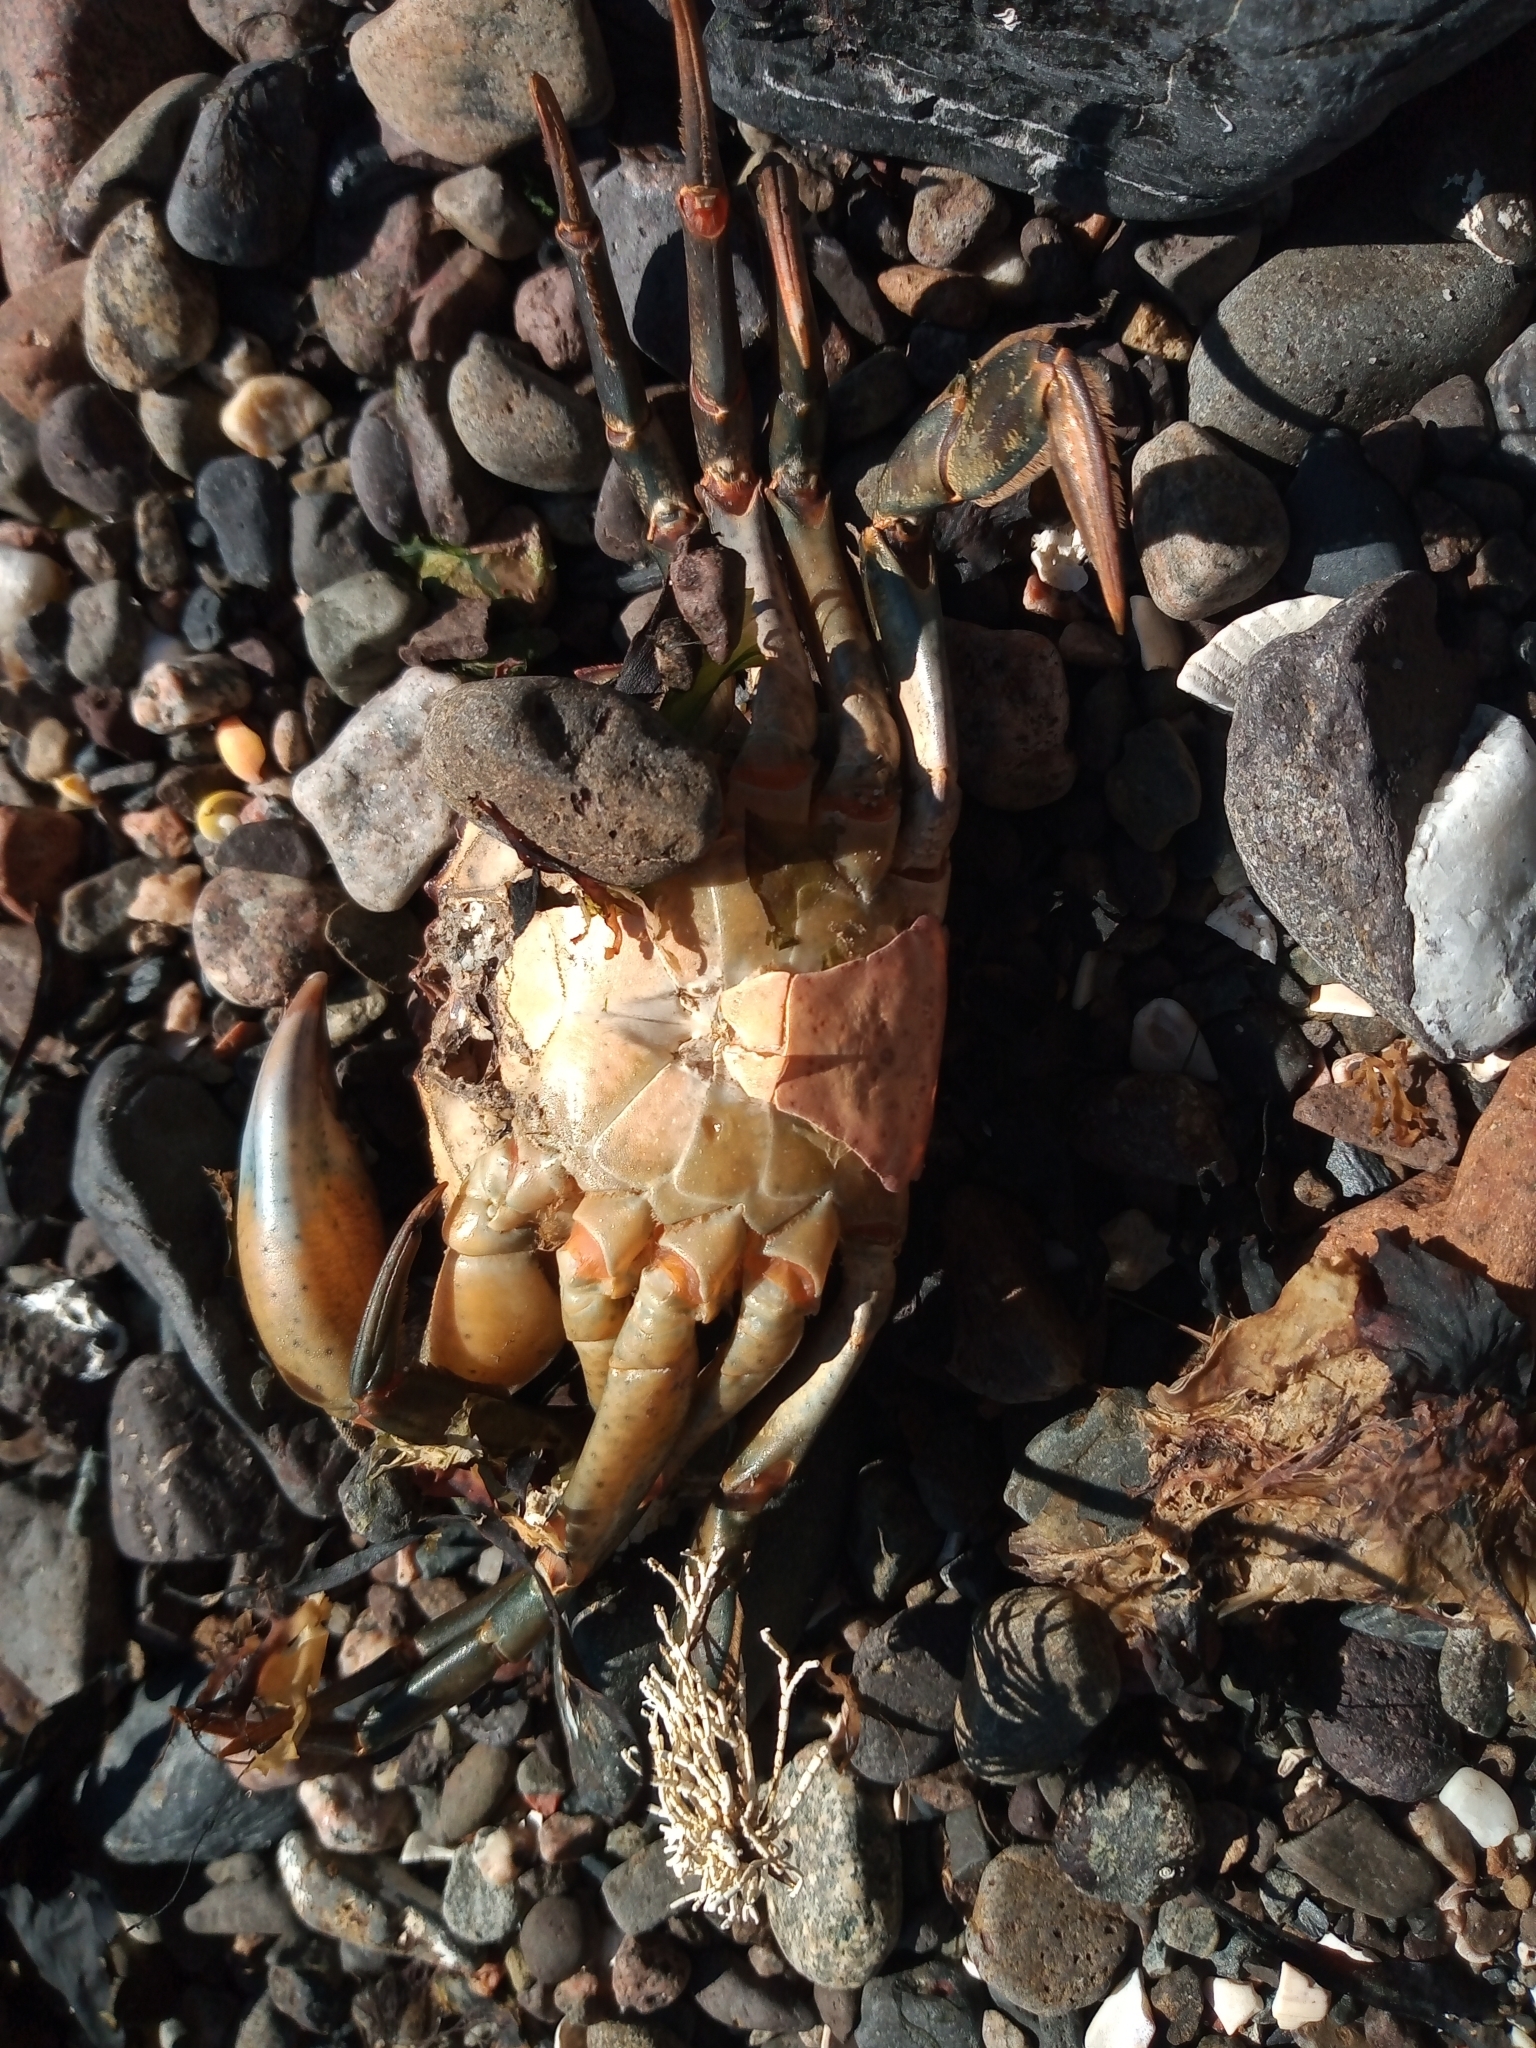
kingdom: Animalia
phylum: Arthropoda
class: Malacostraca
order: Decapoda
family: Carcinidae
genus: Carcinus
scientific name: Carcinus maenas
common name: European green crab
